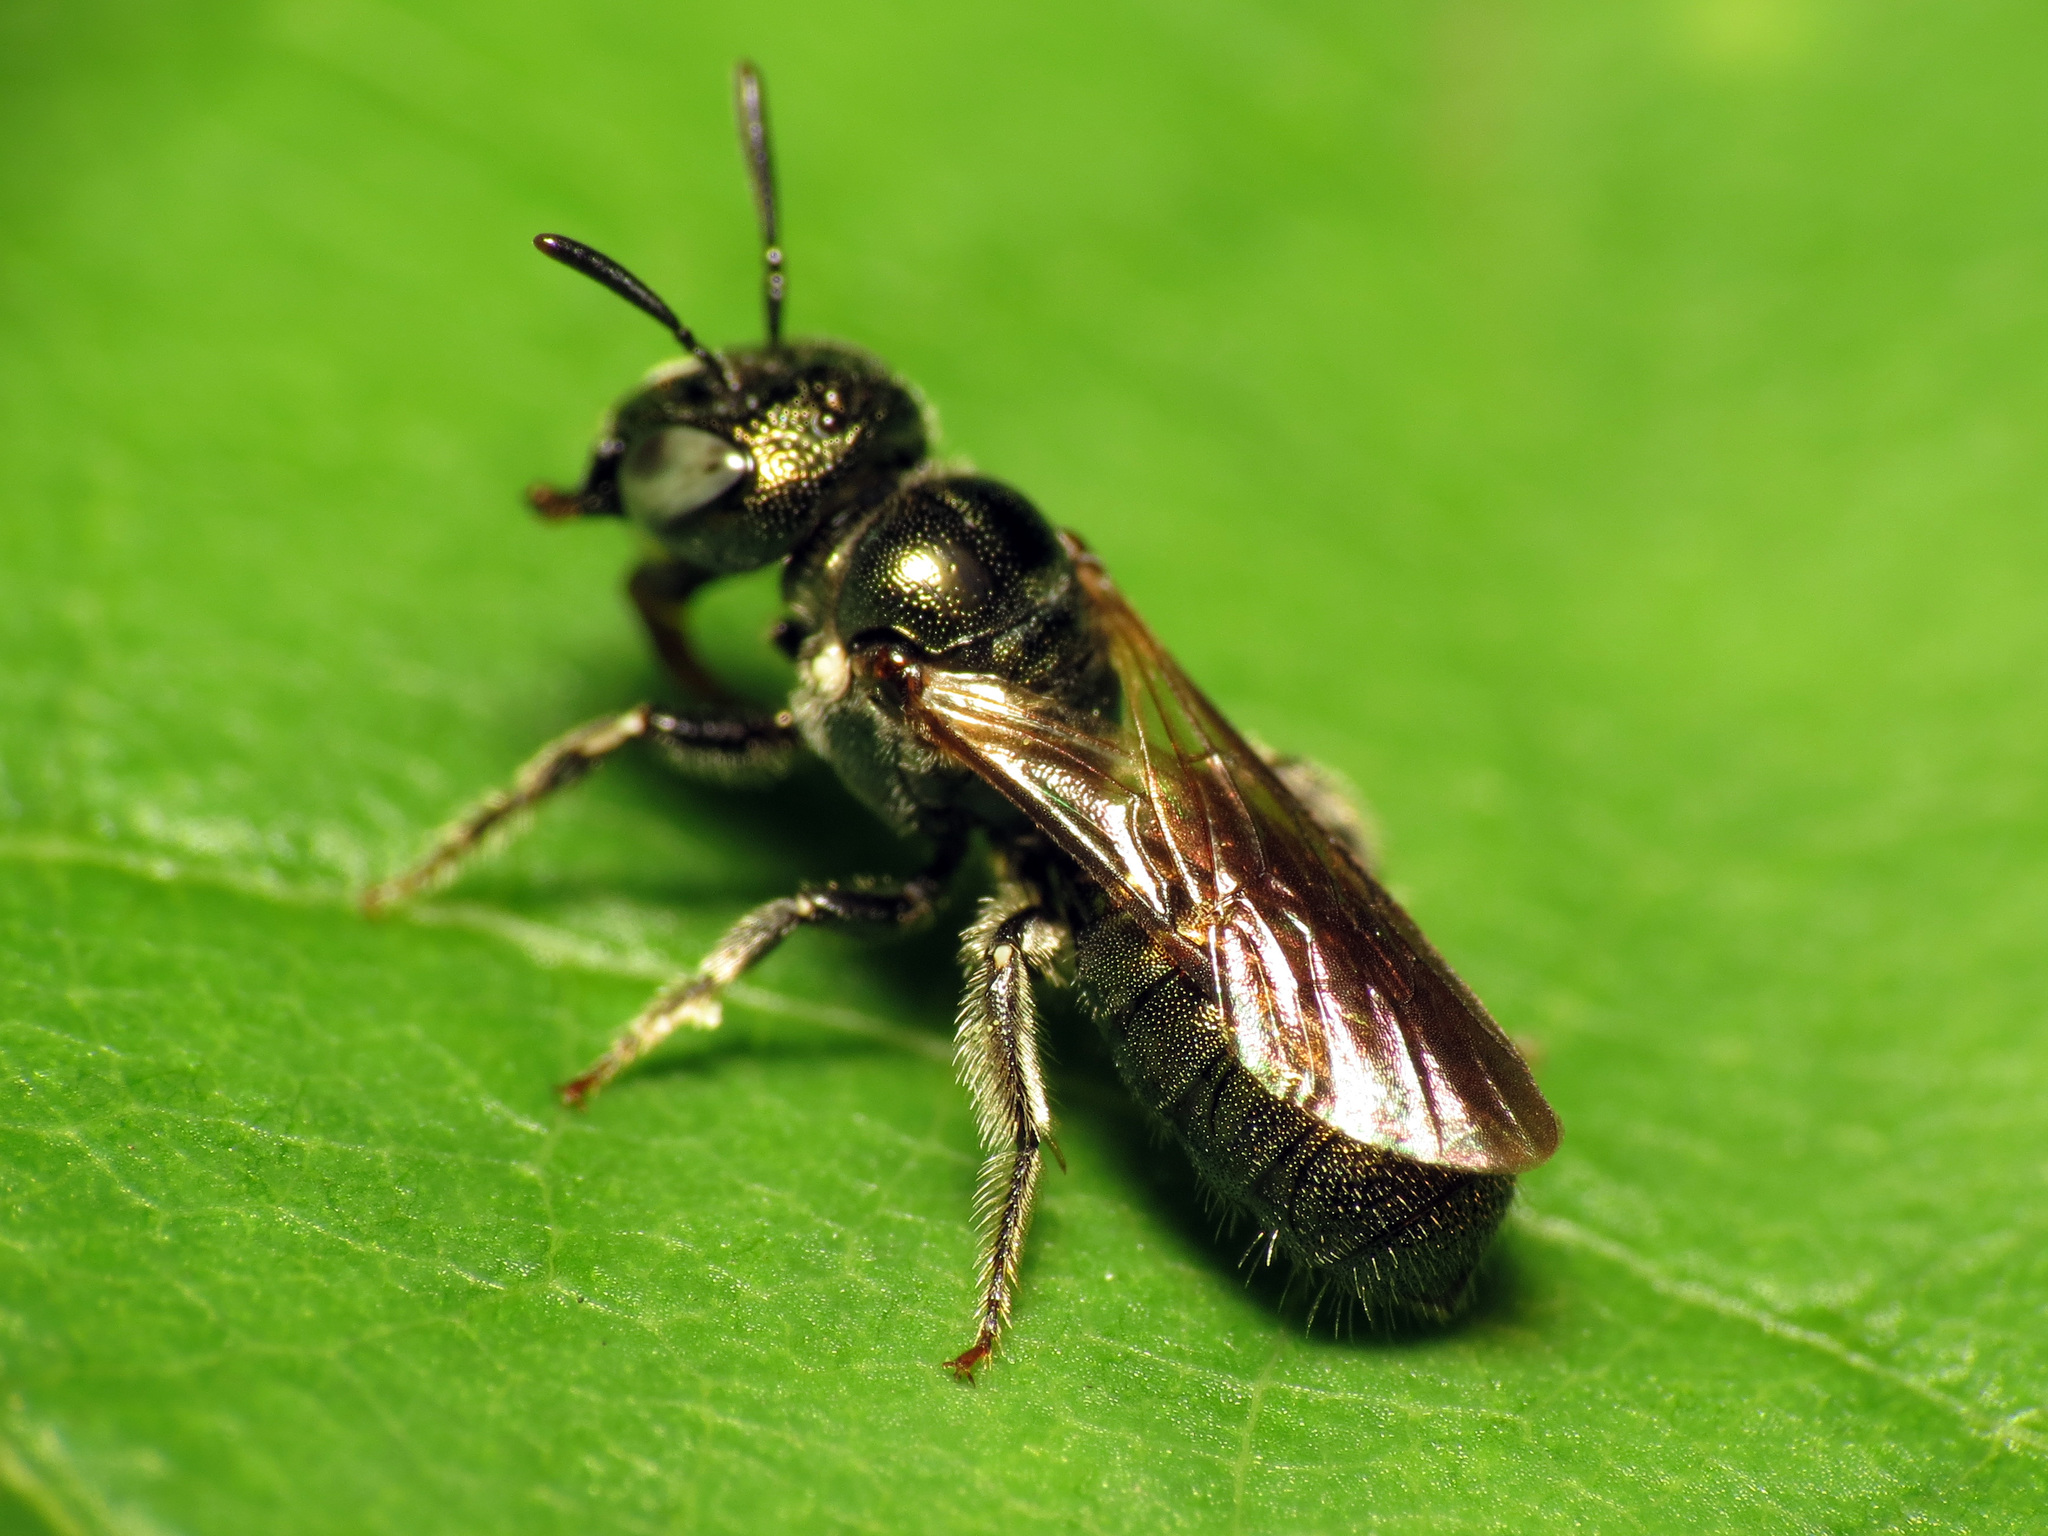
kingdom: Animalia
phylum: Arthropoda
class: Insecta
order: Hymenoptera
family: Apidae
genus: Ceratina
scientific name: Ceratina strenua
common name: Nimble carpenter bee
